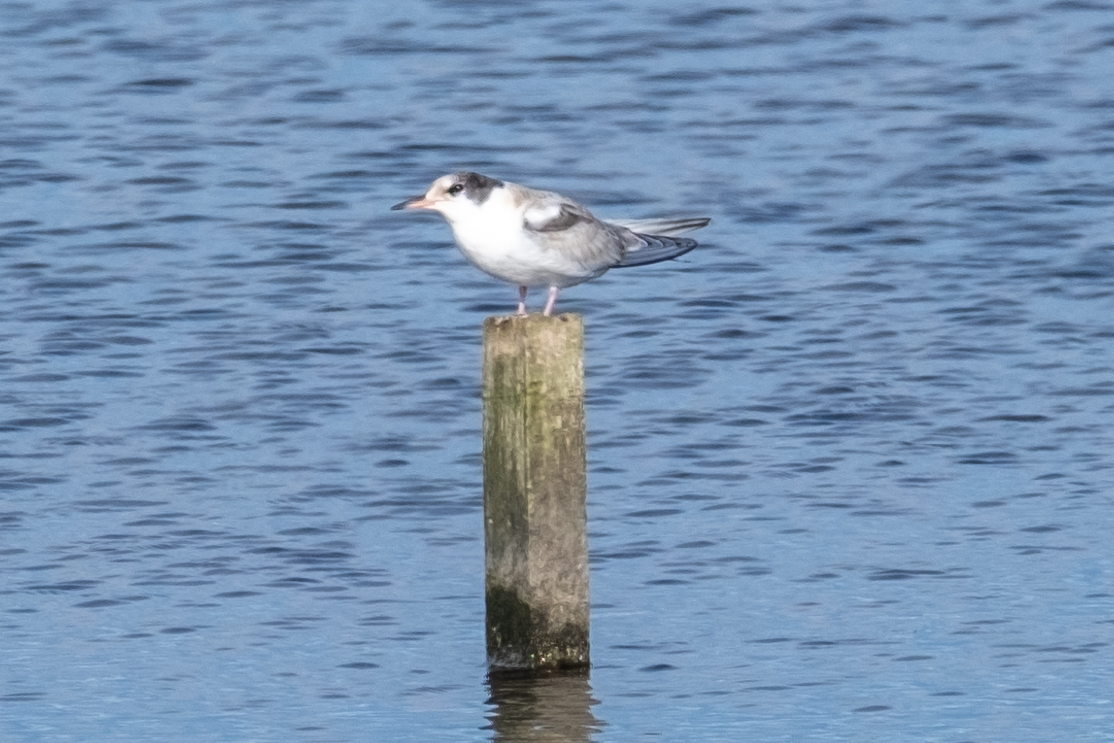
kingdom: Animalia
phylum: Chordata
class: Aves
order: Charadriiformes
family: Laridae
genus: Sterna
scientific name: Sterna hirundo
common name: Common tern
